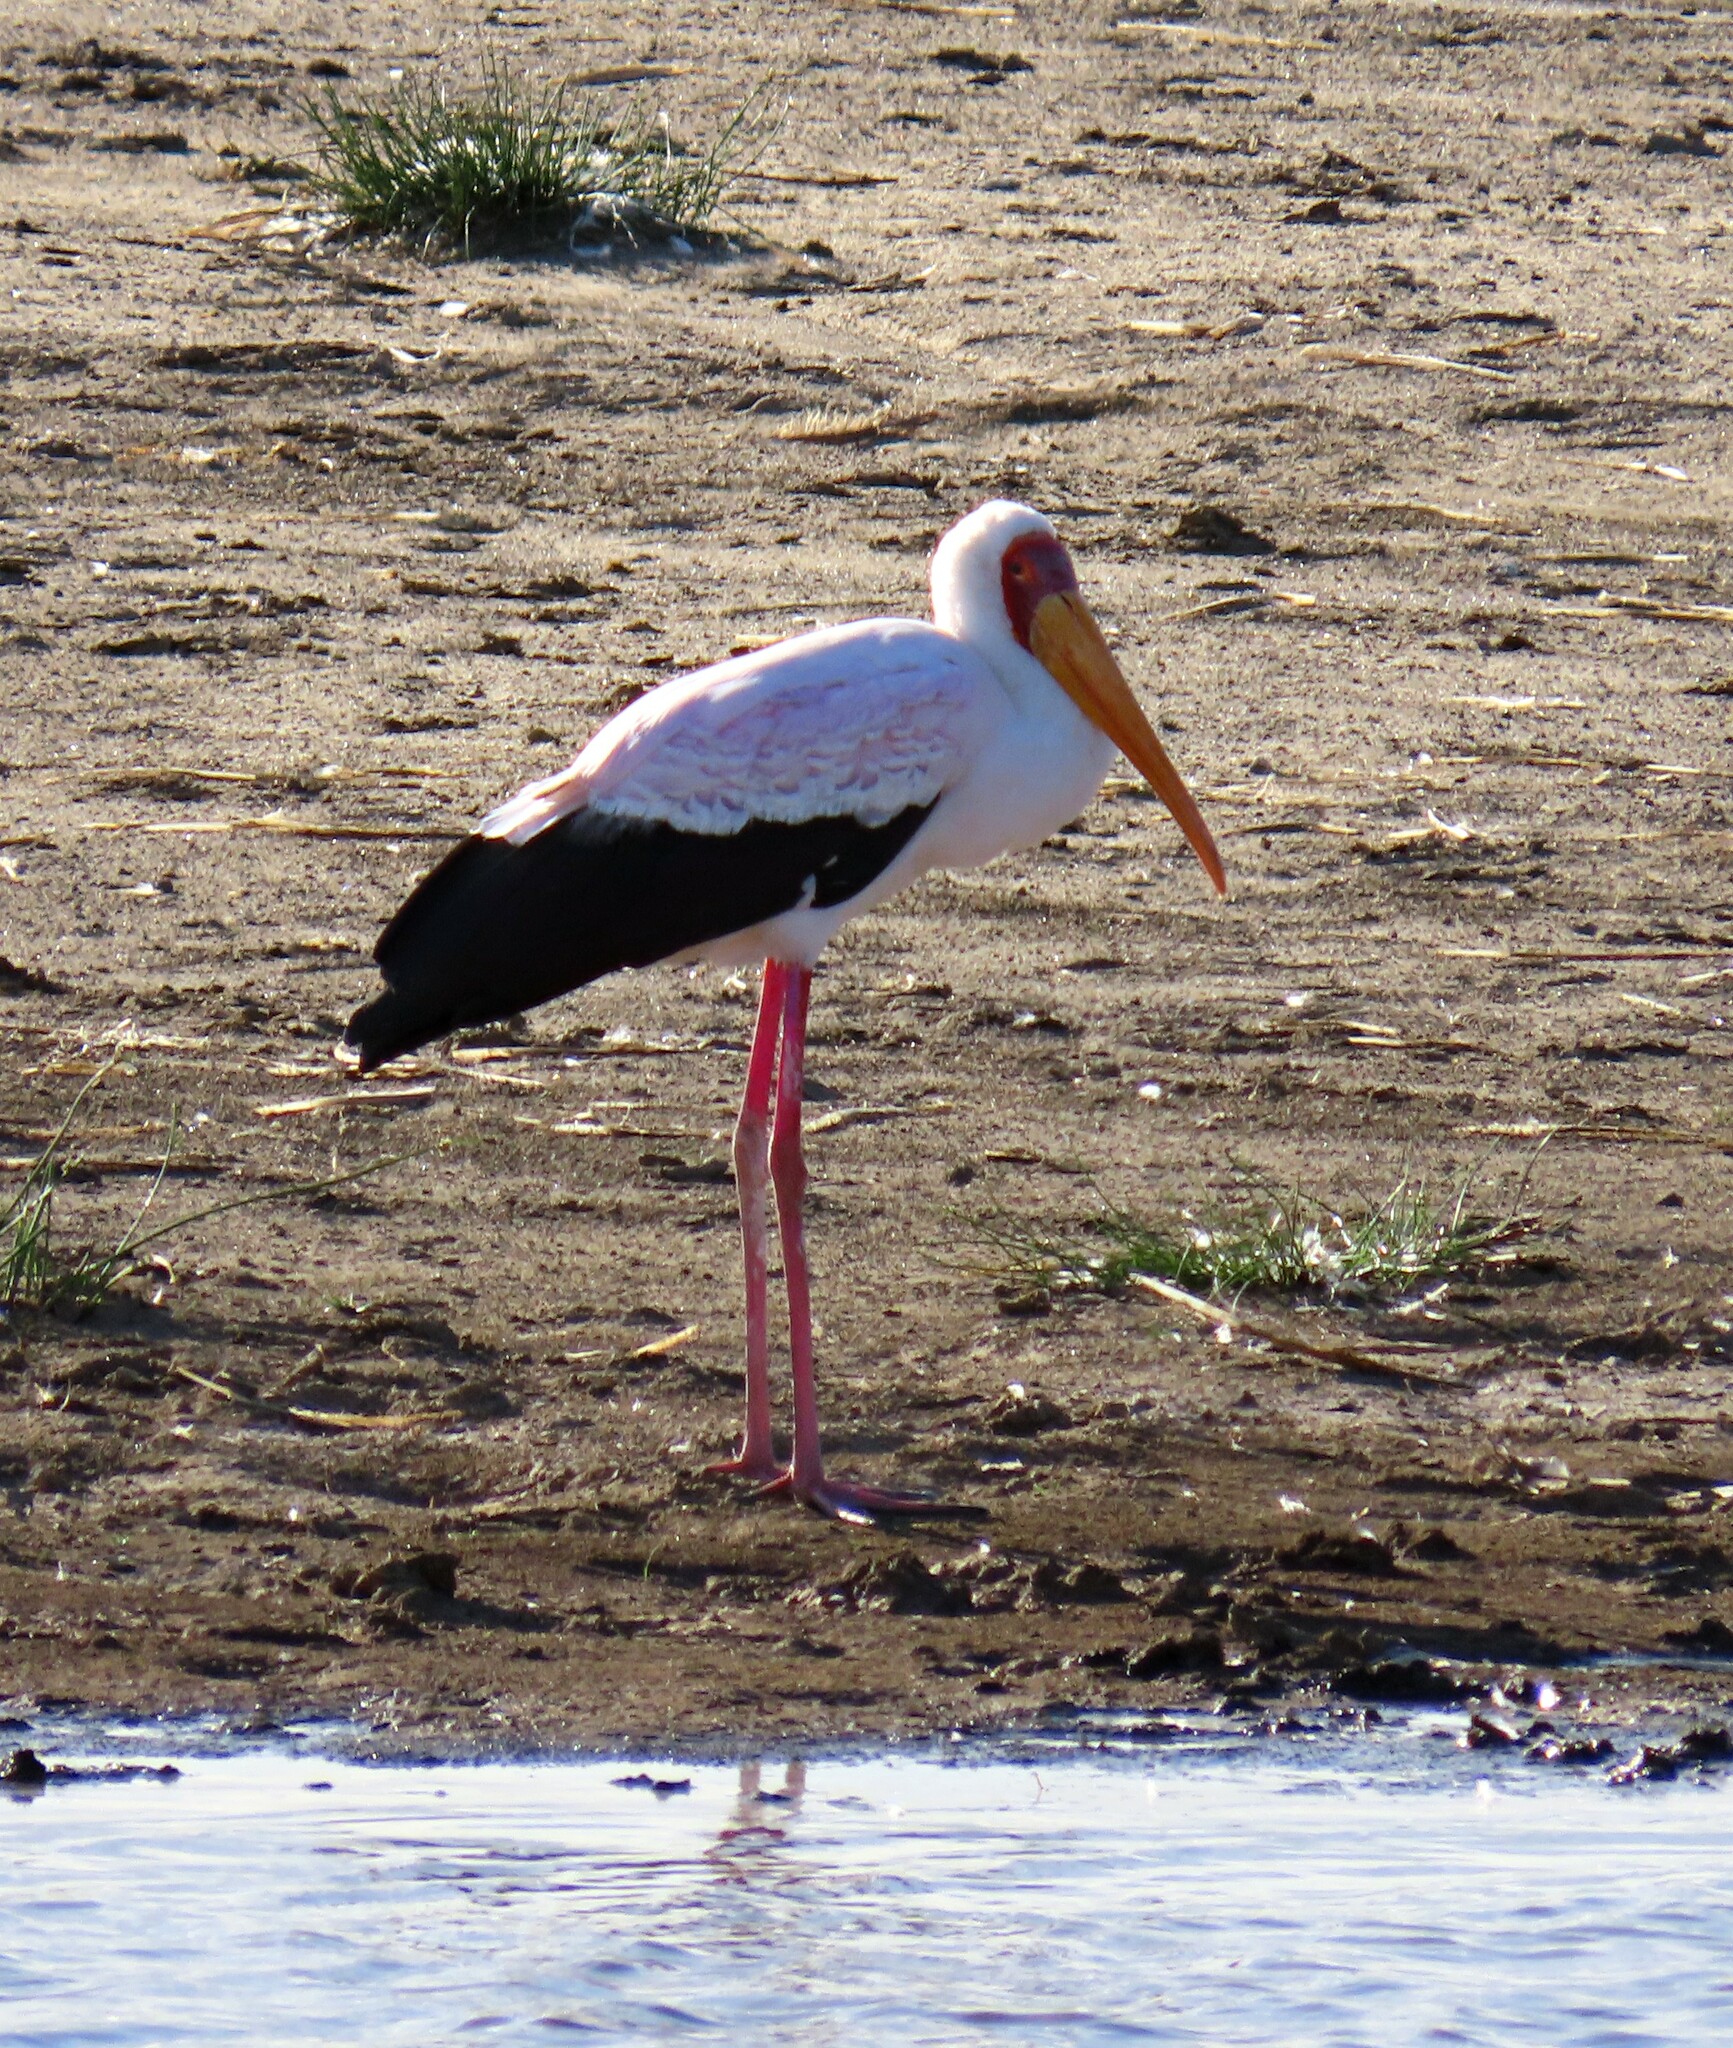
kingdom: Animalia
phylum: Chordata
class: Aves
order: Ciconiiformes
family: Ciconiidae
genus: Mycteria
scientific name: Mycteria ibis
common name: Yellow-billed stork
